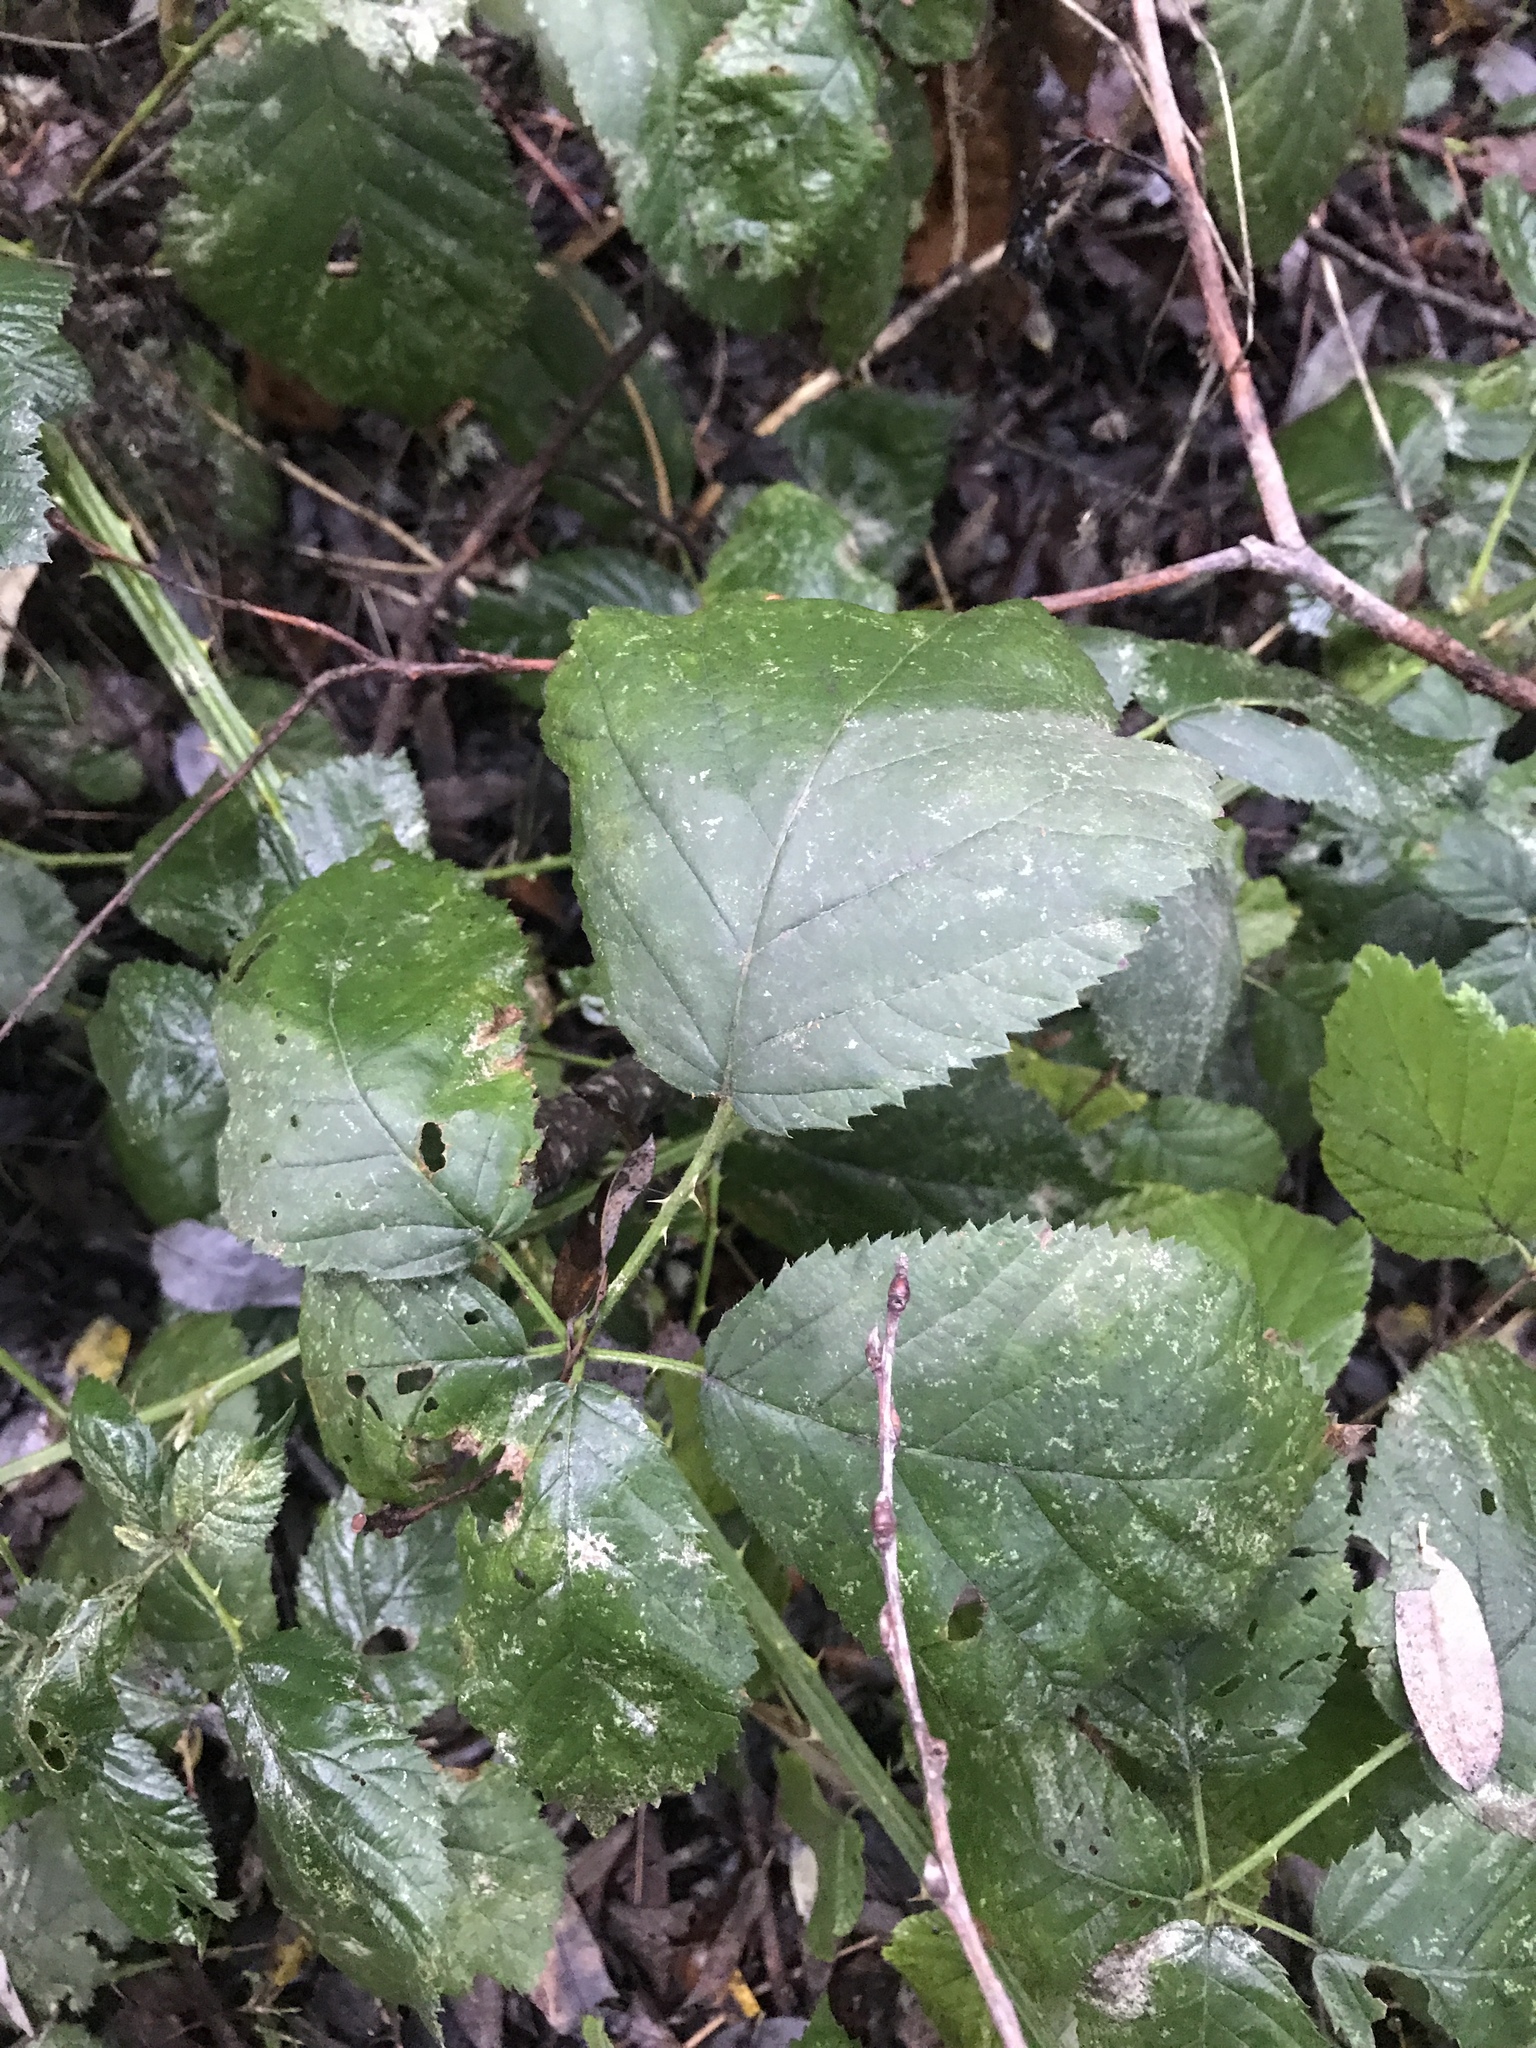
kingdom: Plantae
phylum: Tracheophyta
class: Magnoliopsida
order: Rosales
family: Rosaceae
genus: Rubus
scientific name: Rubus armeniacus
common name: Himalayan blackberry
